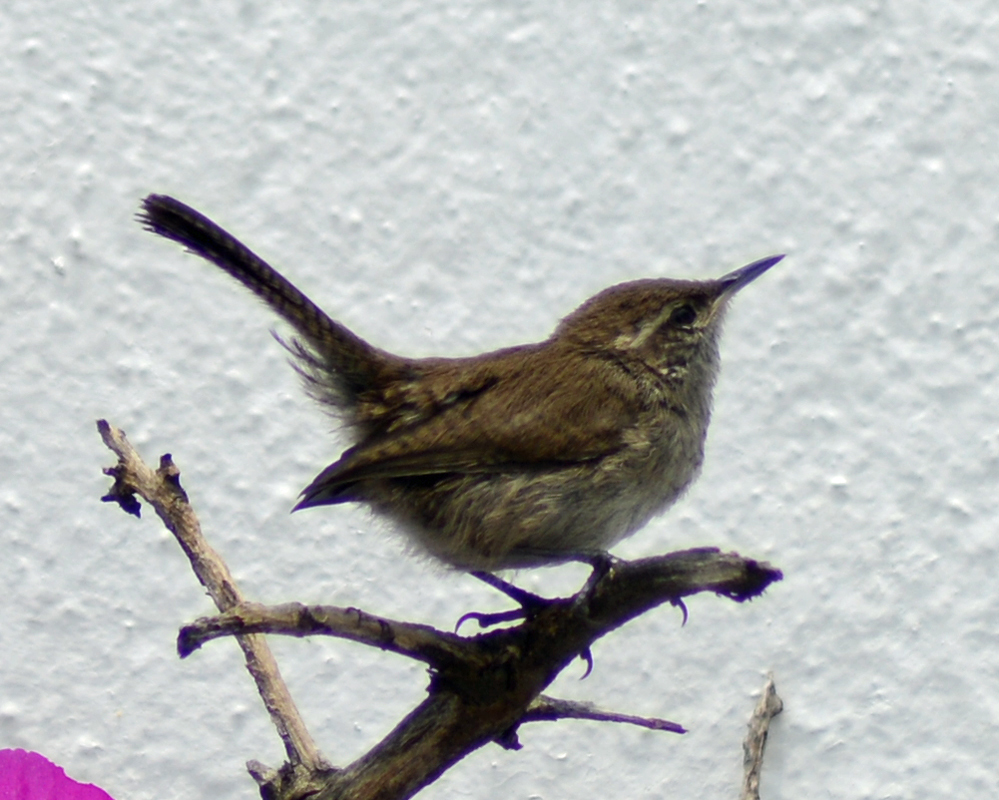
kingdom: Animalia
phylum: Chordata
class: Aves
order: Passeriformes
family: Troglodytidae
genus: Thryomanes
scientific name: Thryomanes bewickii
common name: Bewick's wren
